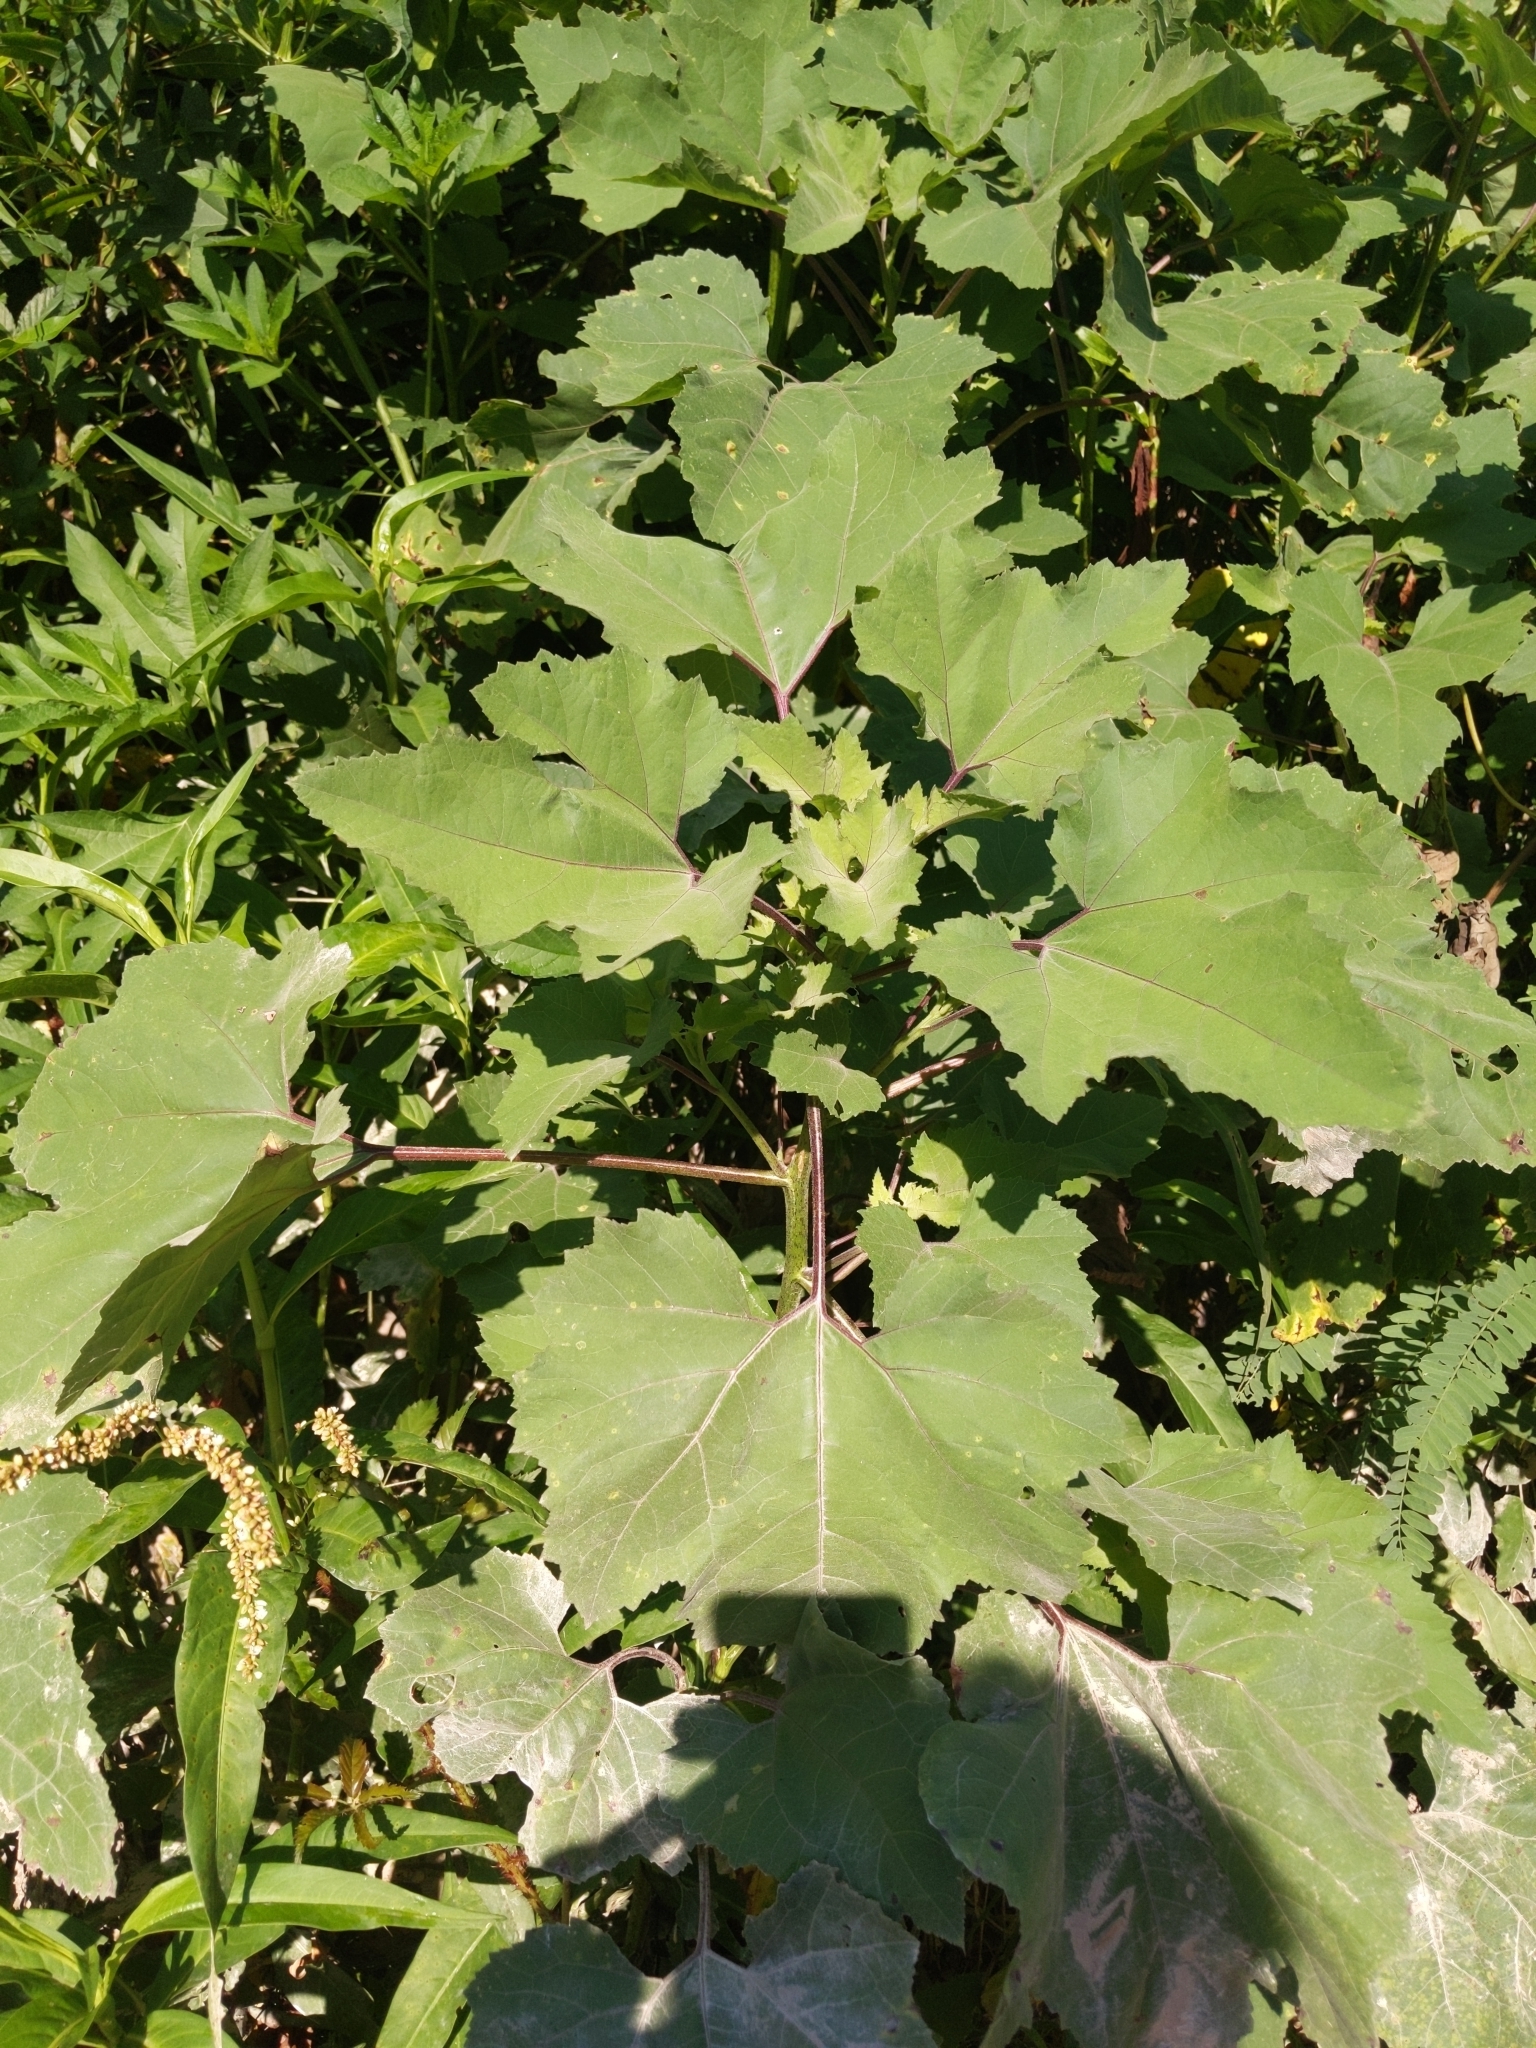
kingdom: Plantae
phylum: Tracheophyta
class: Magnoliopsida
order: Asterales
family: Asteraceae
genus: Xanthium
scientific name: Xanthium strumarium
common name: Rough cocklebur
